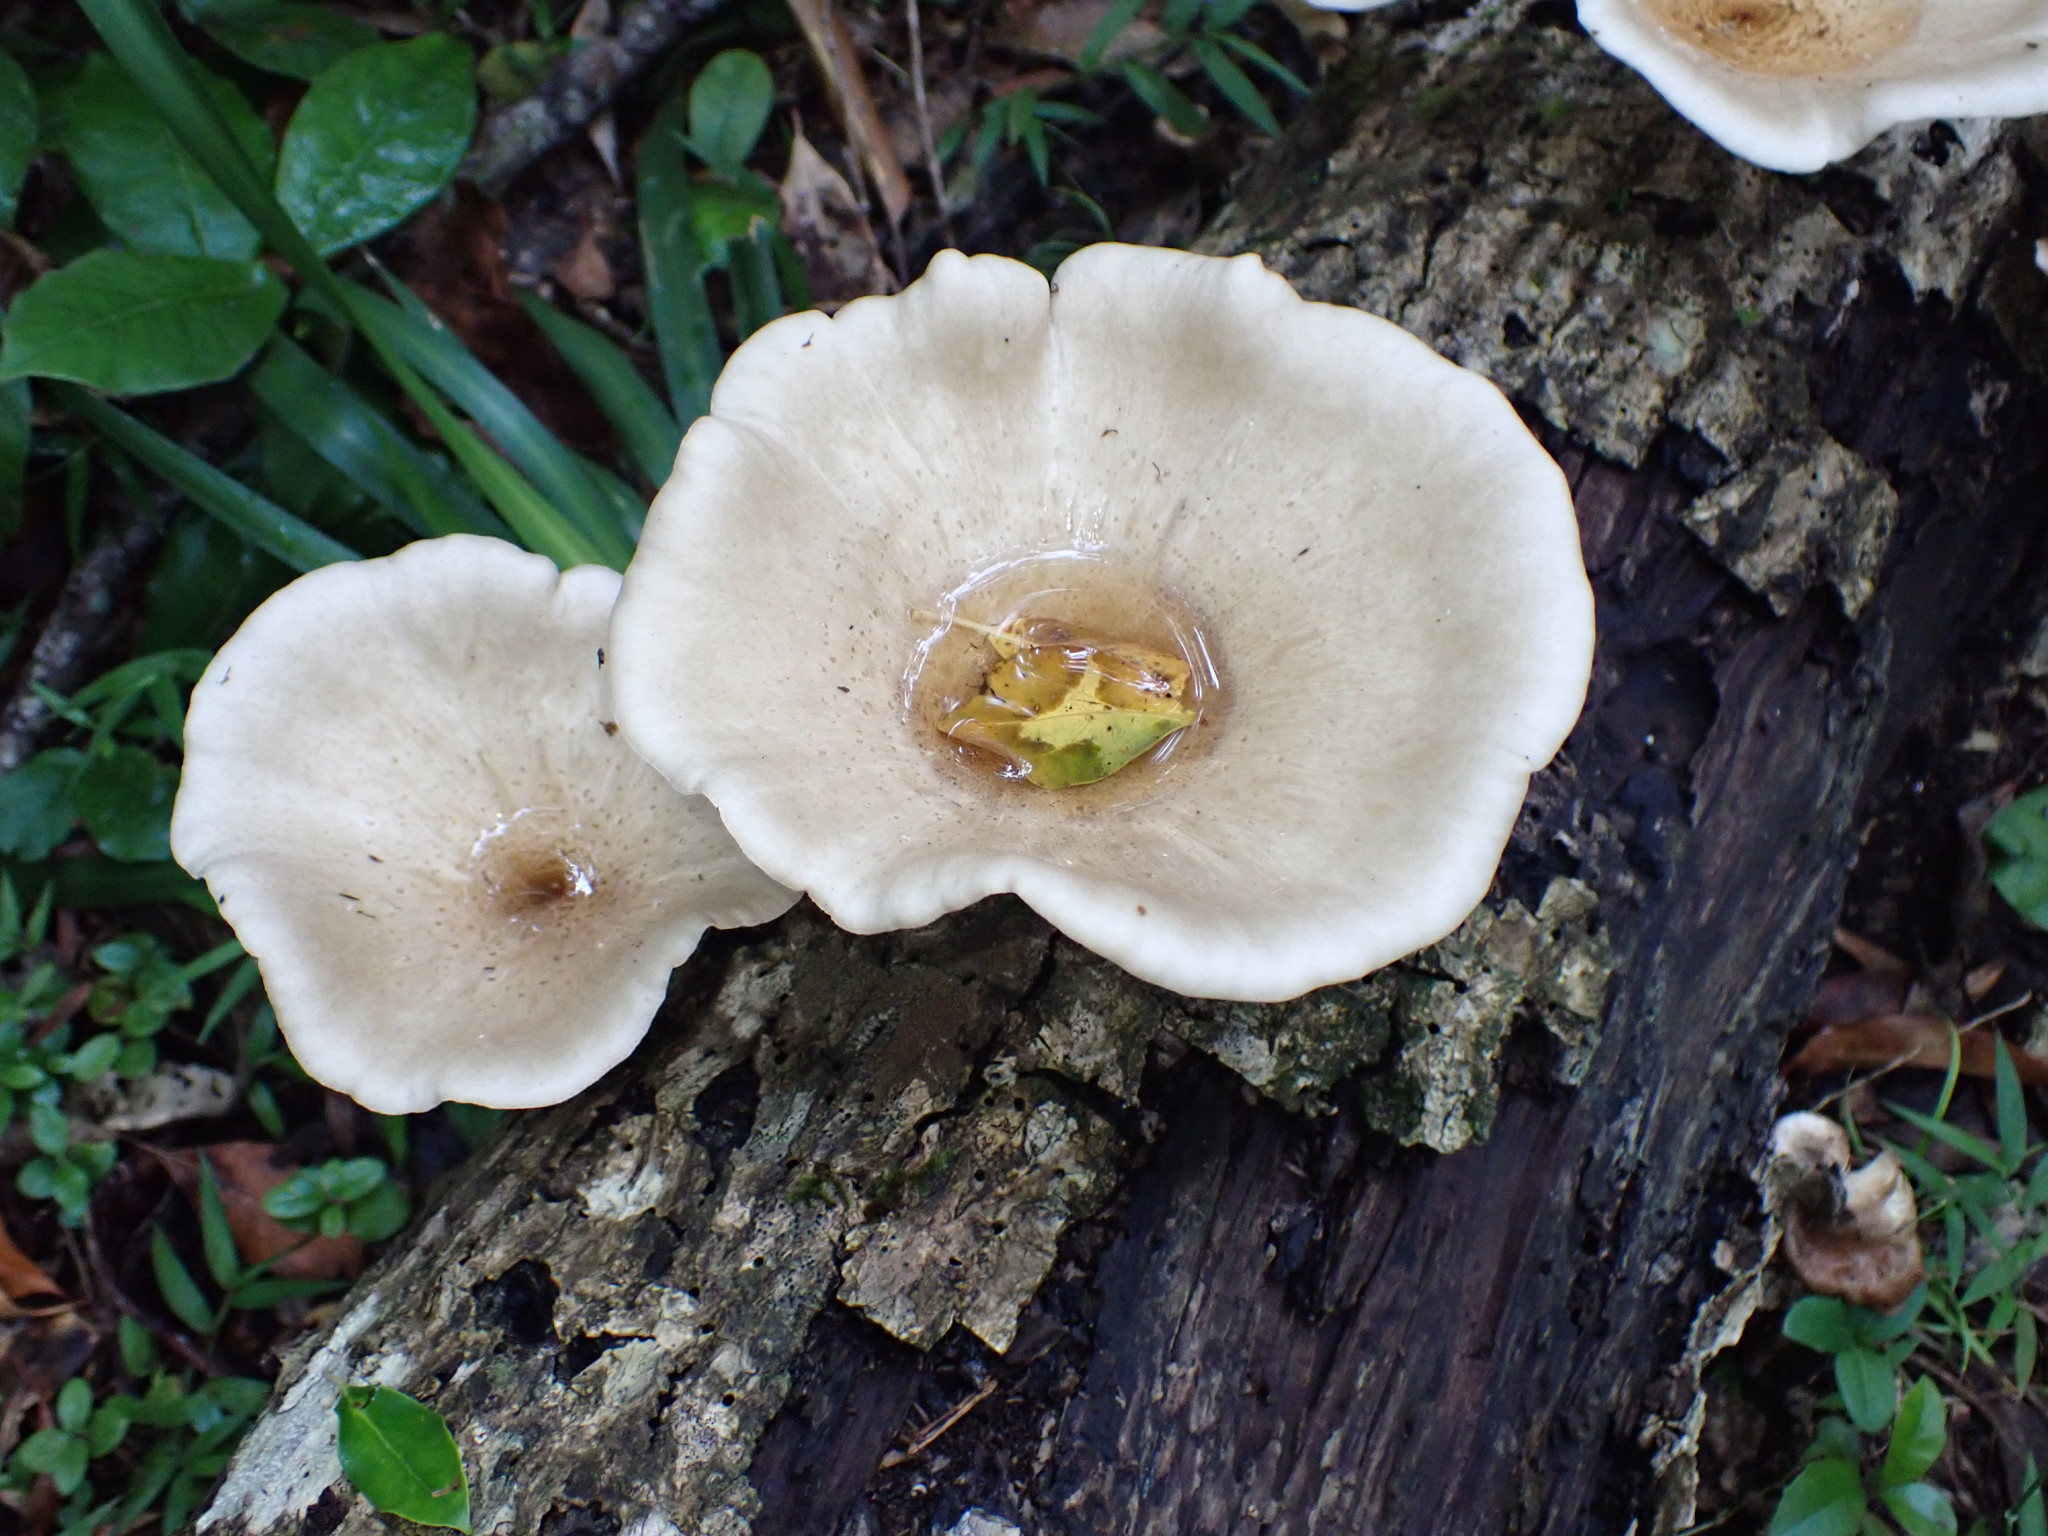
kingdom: Fungi
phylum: Basidiomycota
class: Agaricomycetes
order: Polyporales
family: Polyporaceae
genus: Lentinus
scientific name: Lentinus sajor-caju
